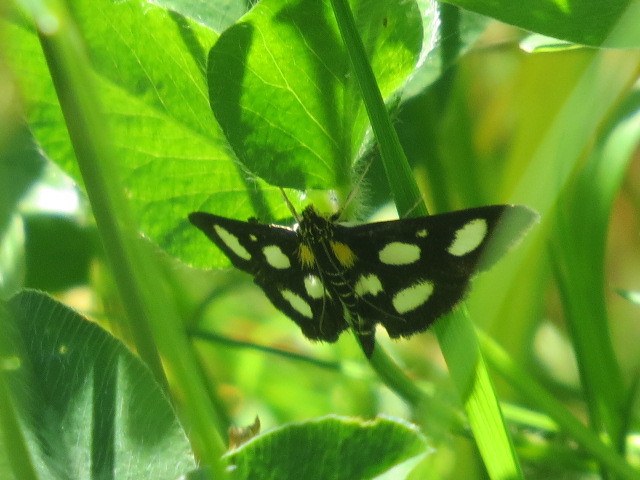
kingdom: Animalia
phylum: Arthropoda
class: Insecta
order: Lepidoptera
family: Crambidae
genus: Anania
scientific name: Anania funebris
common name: White-spotted sable moth
